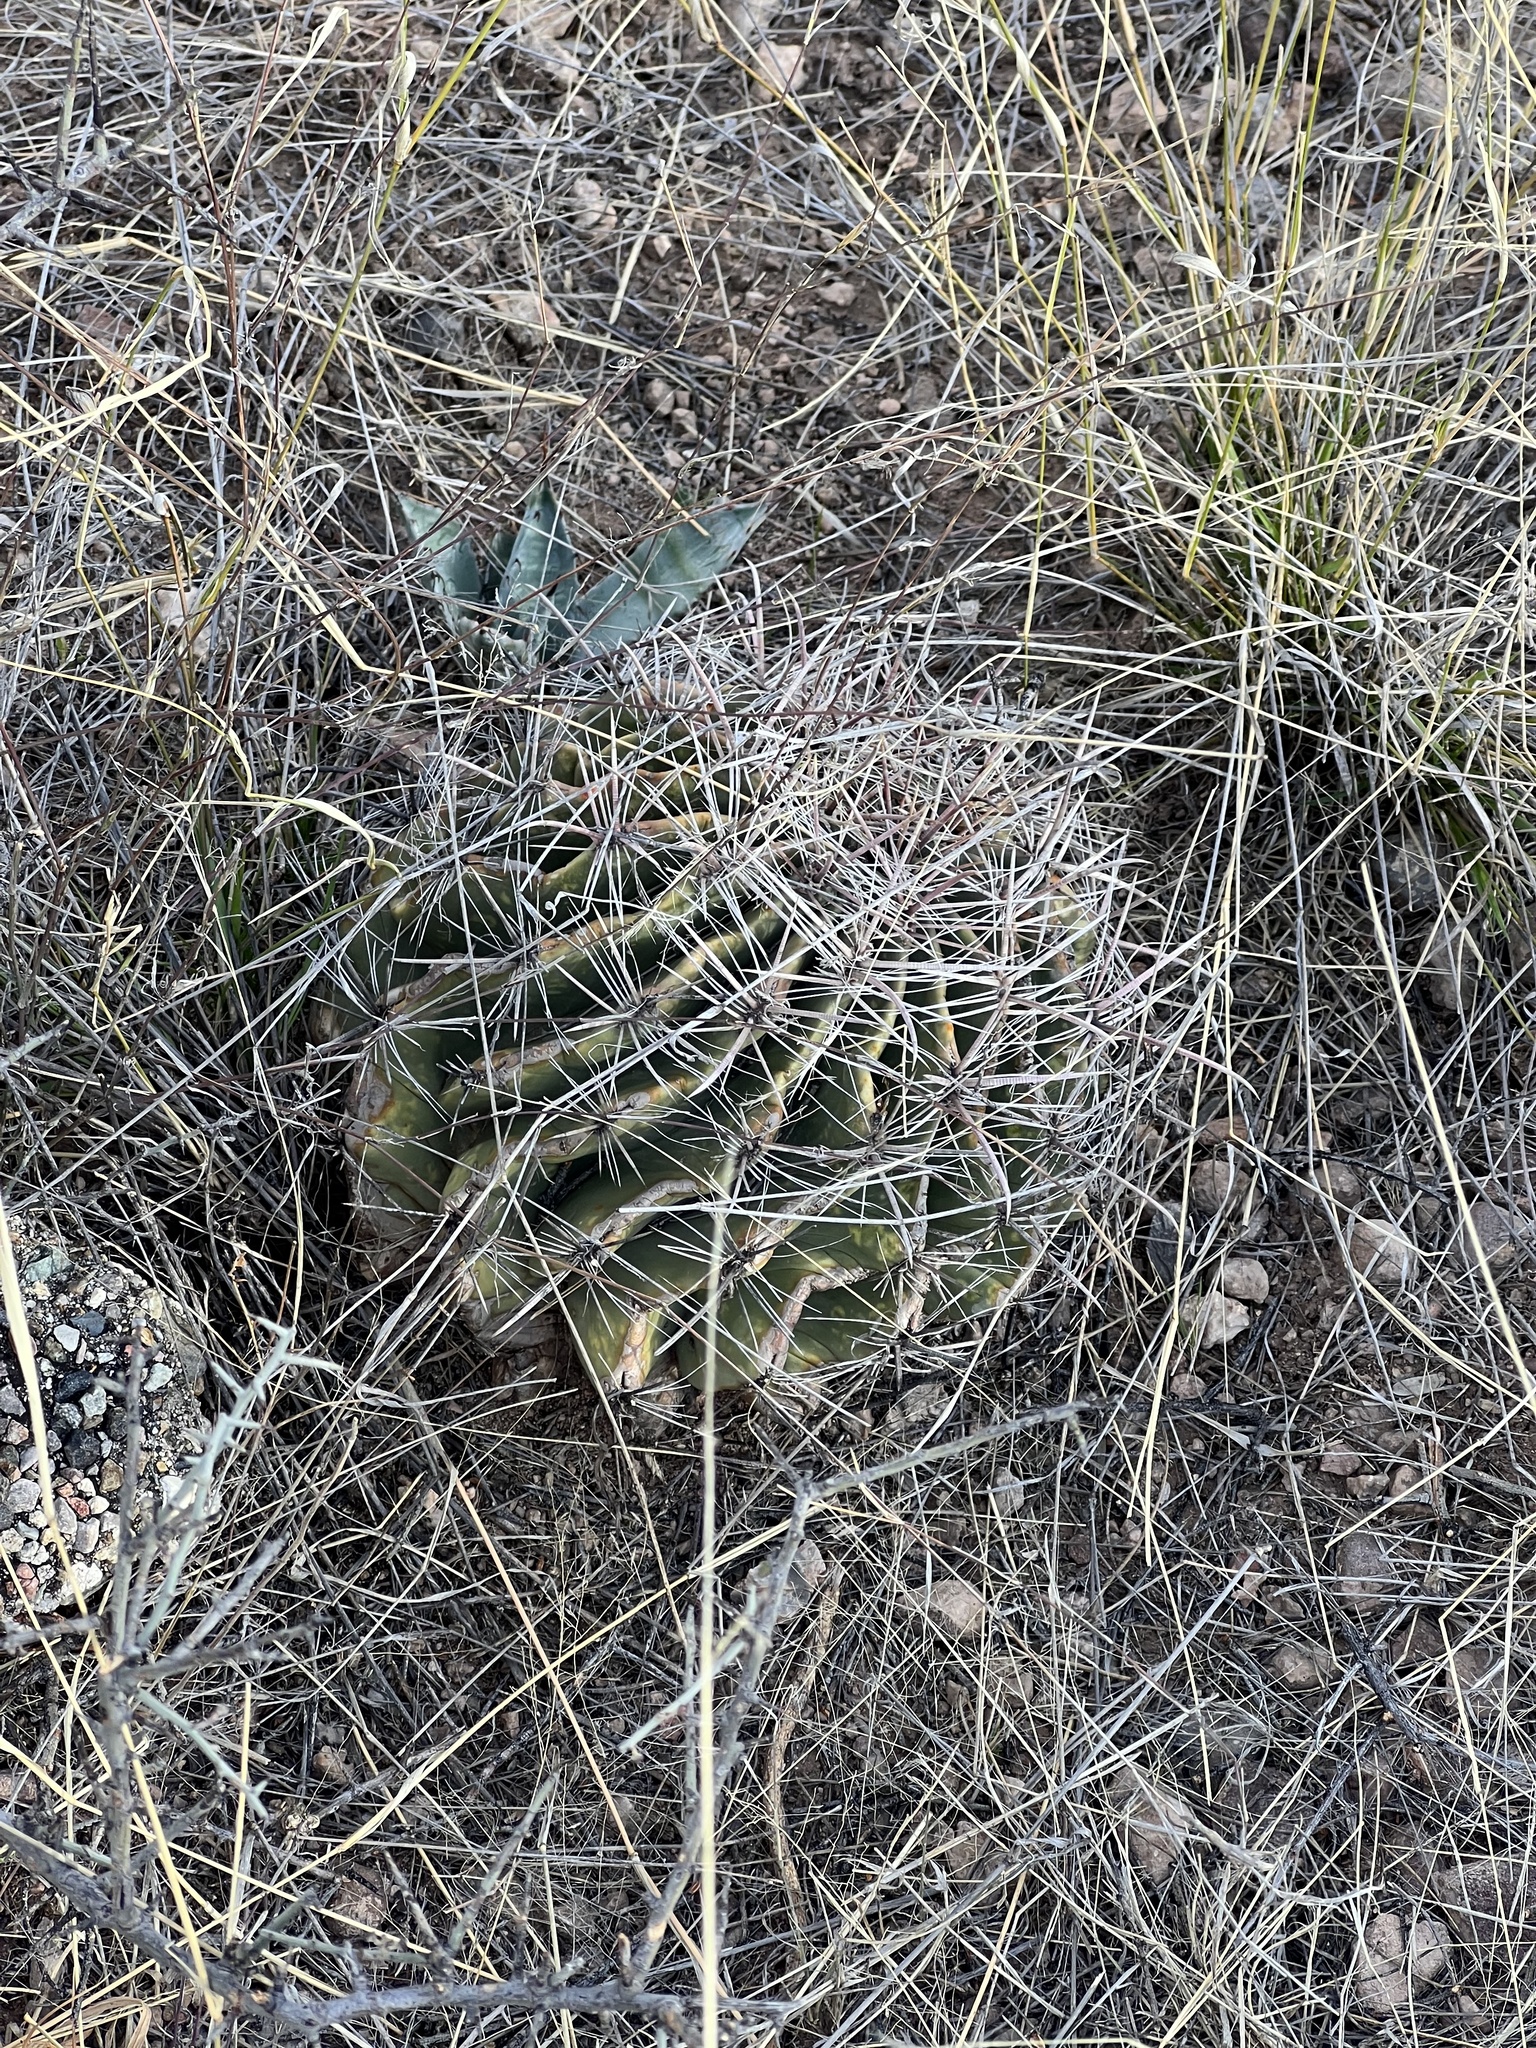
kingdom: Plantae
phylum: Tracheophyta
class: Magnoliopsida
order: Caryophyllales
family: Cactaceae
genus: Ferocactus
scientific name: Ferocactus wislizeni
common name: Candy barrel cactus
